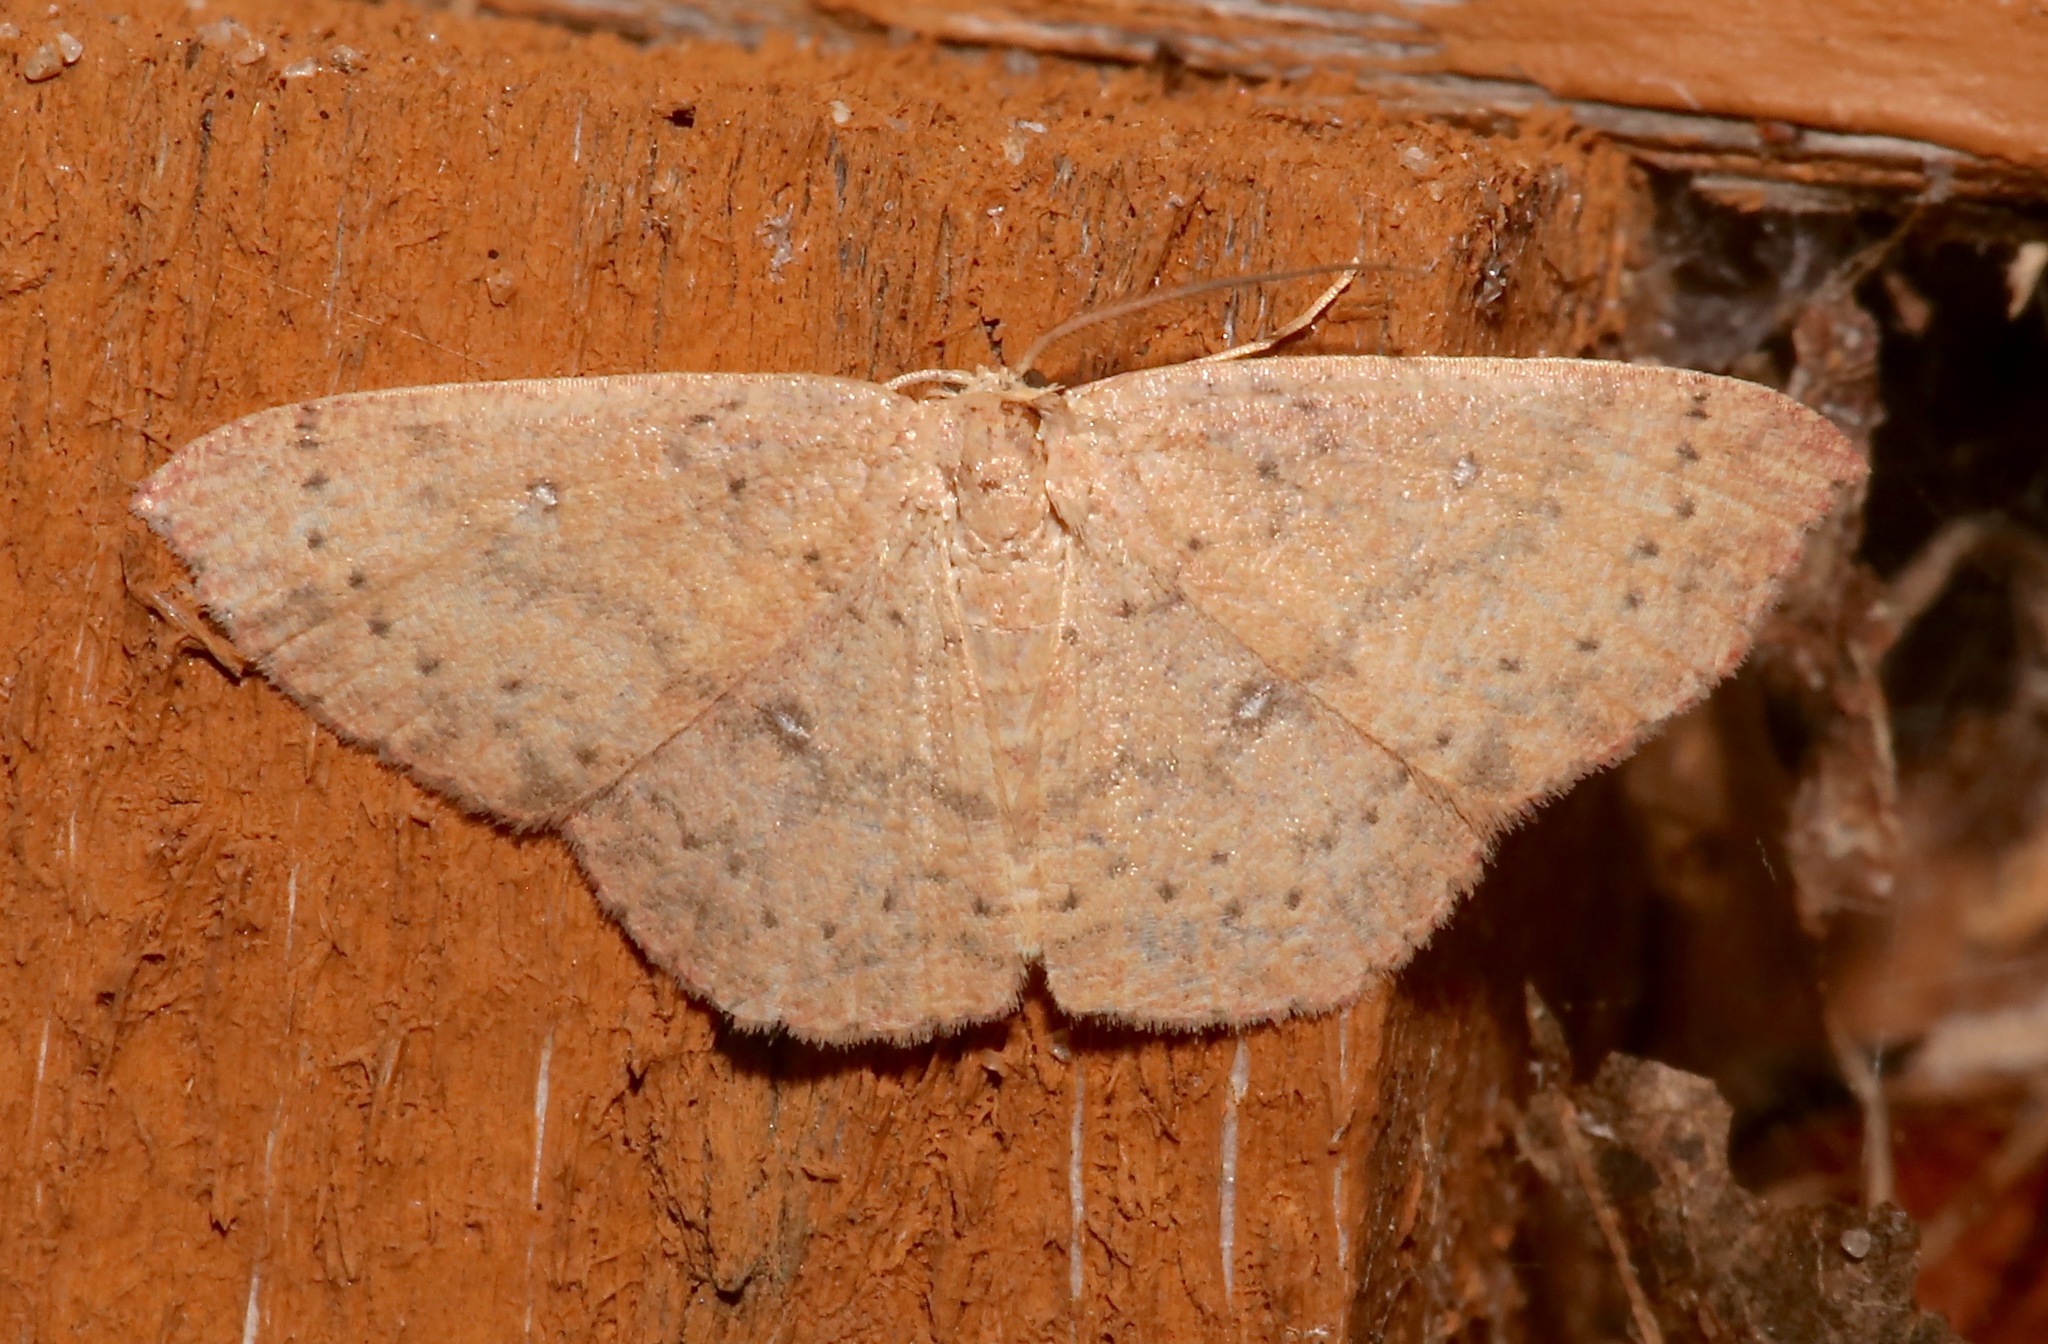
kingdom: Animalia
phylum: Arthropoda
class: Insecta
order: Lepidoptera
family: Geometridae
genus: Cyclophora
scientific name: Cyclophora packardi
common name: Packard's wave
